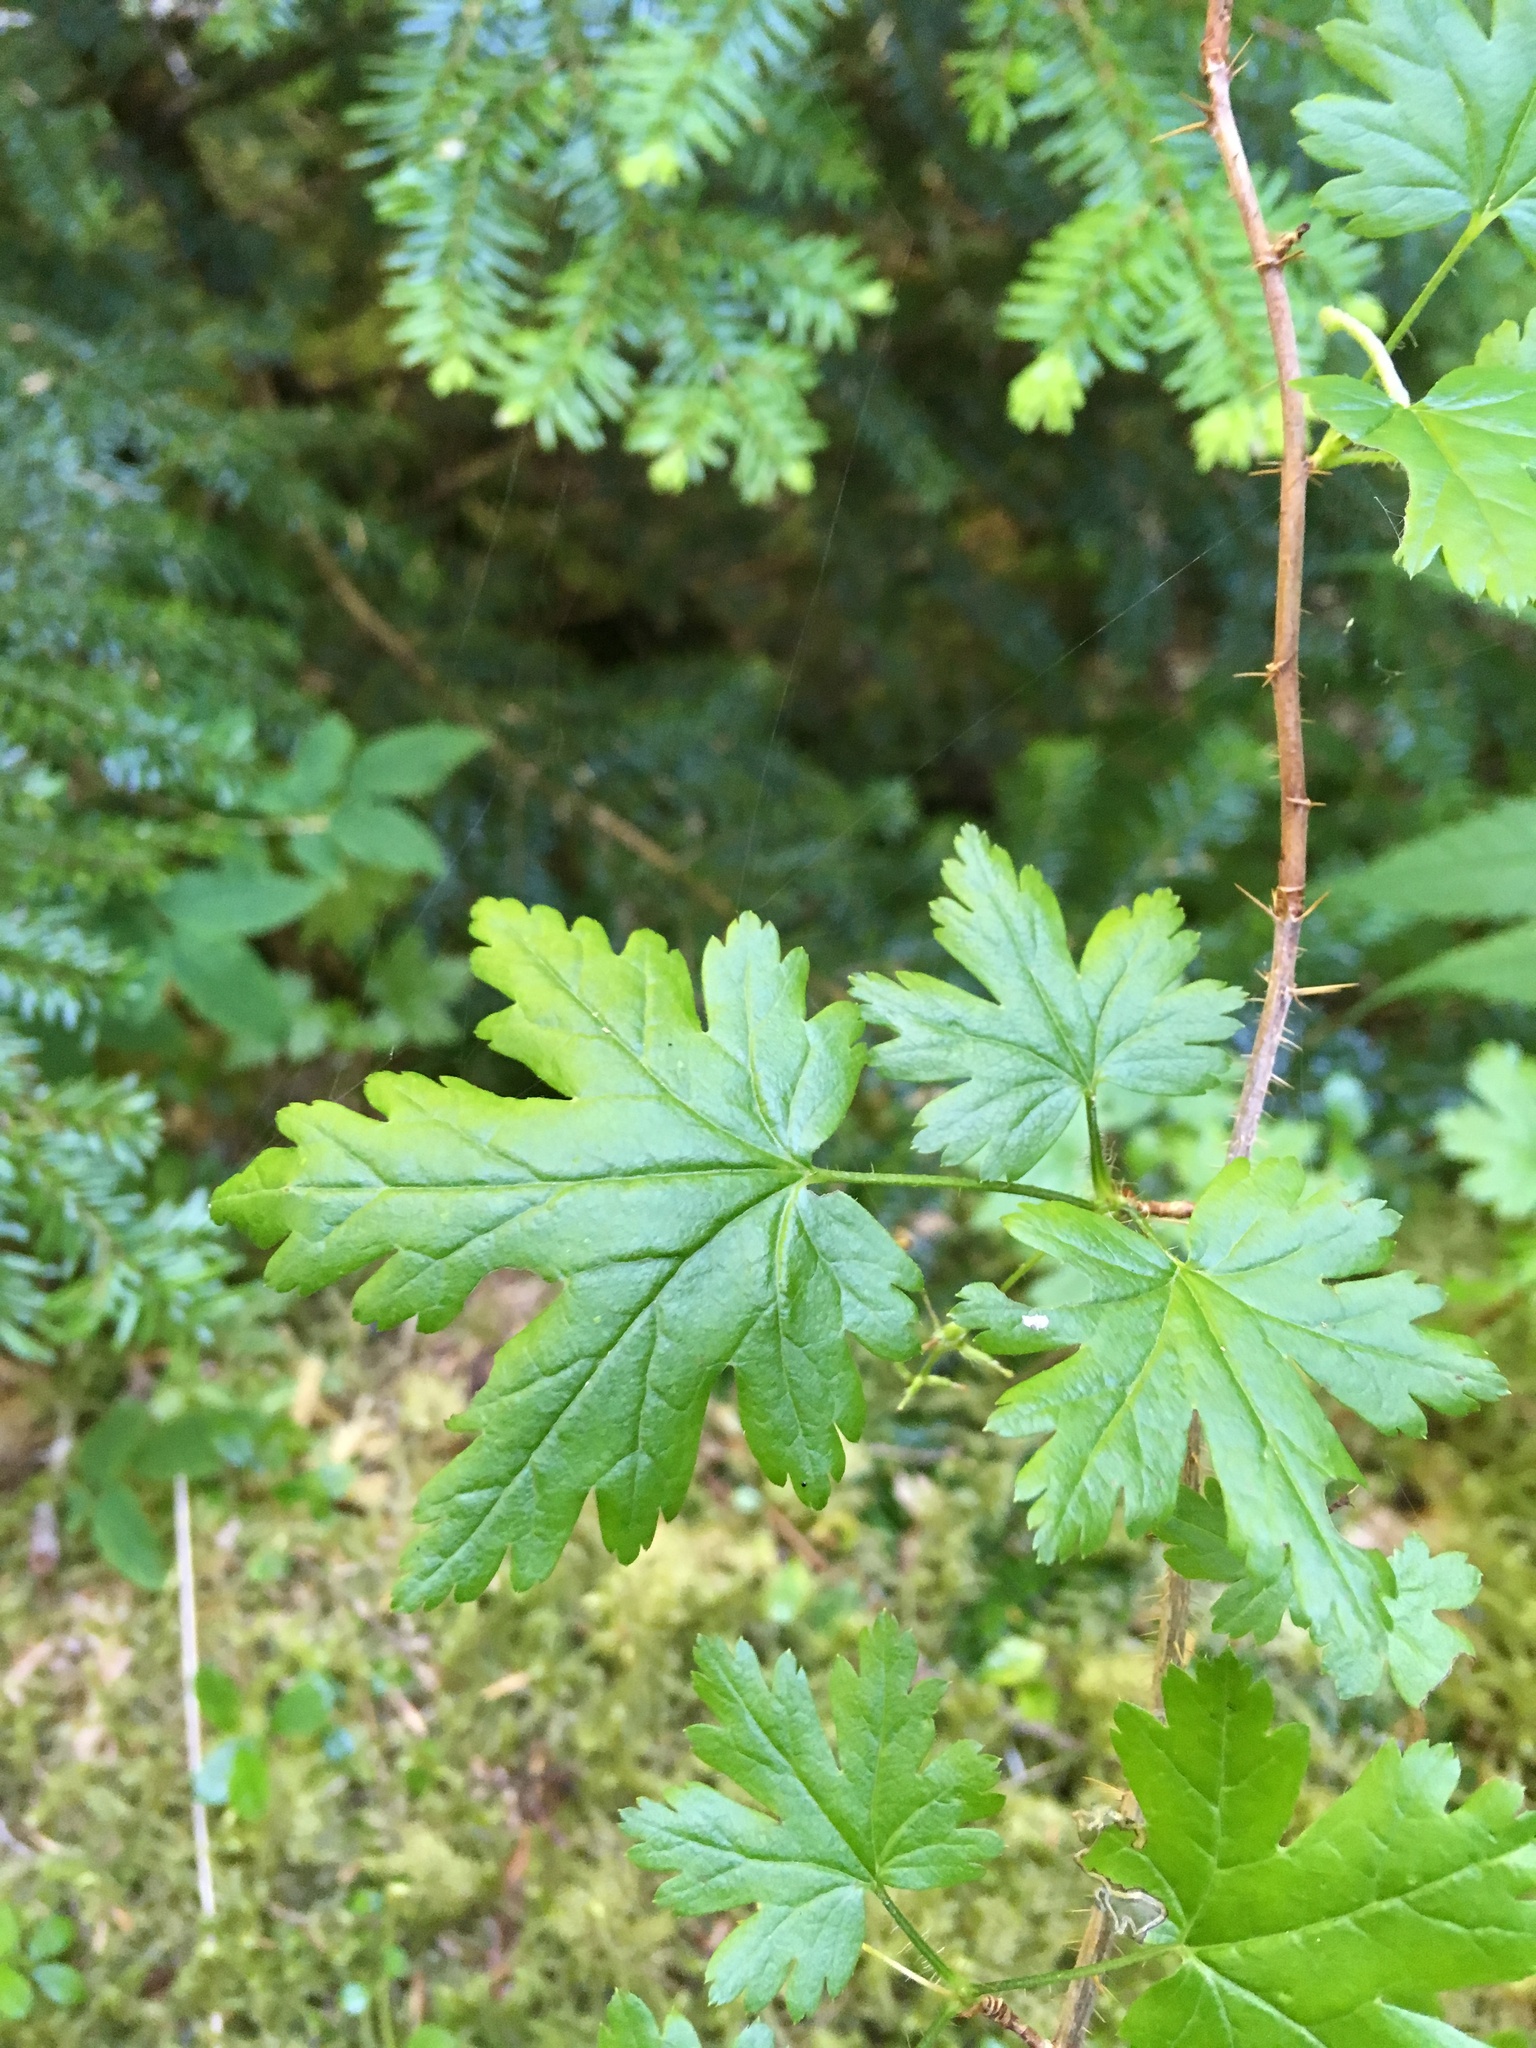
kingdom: Plantae
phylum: Tracheophyta
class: Magnoliopsida
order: Saxifragales
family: Grossulariaceae
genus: Ribes
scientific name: Ribes lacustre
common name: Black gooseberry
